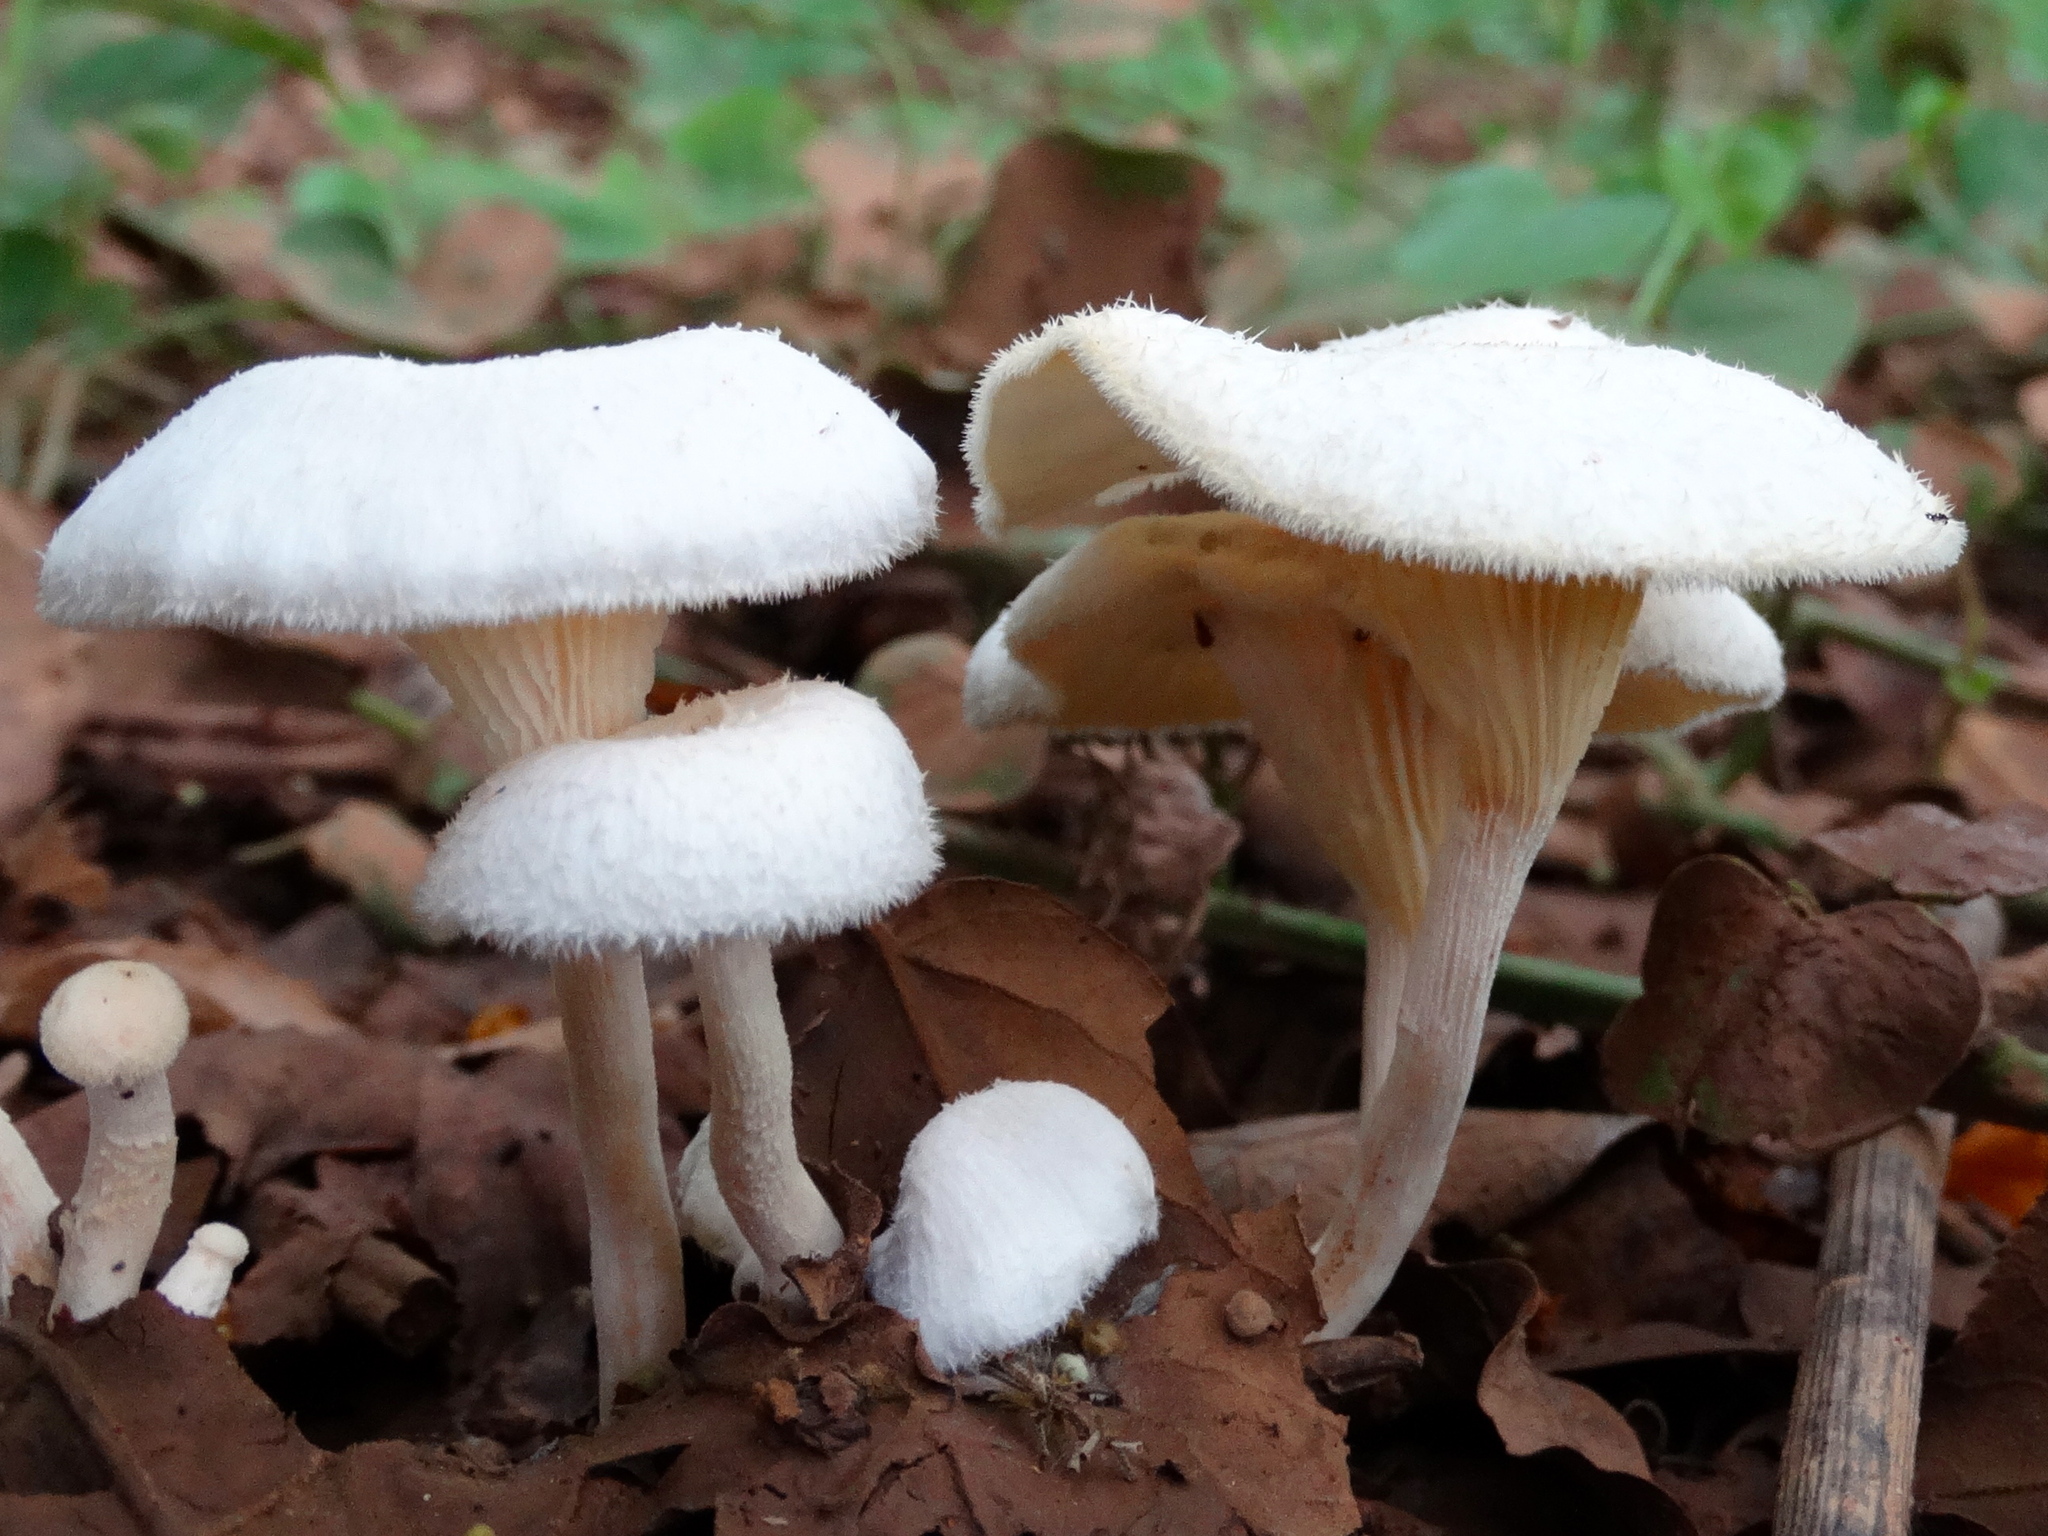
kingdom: Fungi
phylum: Basidiomycota
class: Agaricomycetes
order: Polyporales
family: Polyporaceae
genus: Lentinus
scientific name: Lentinus
